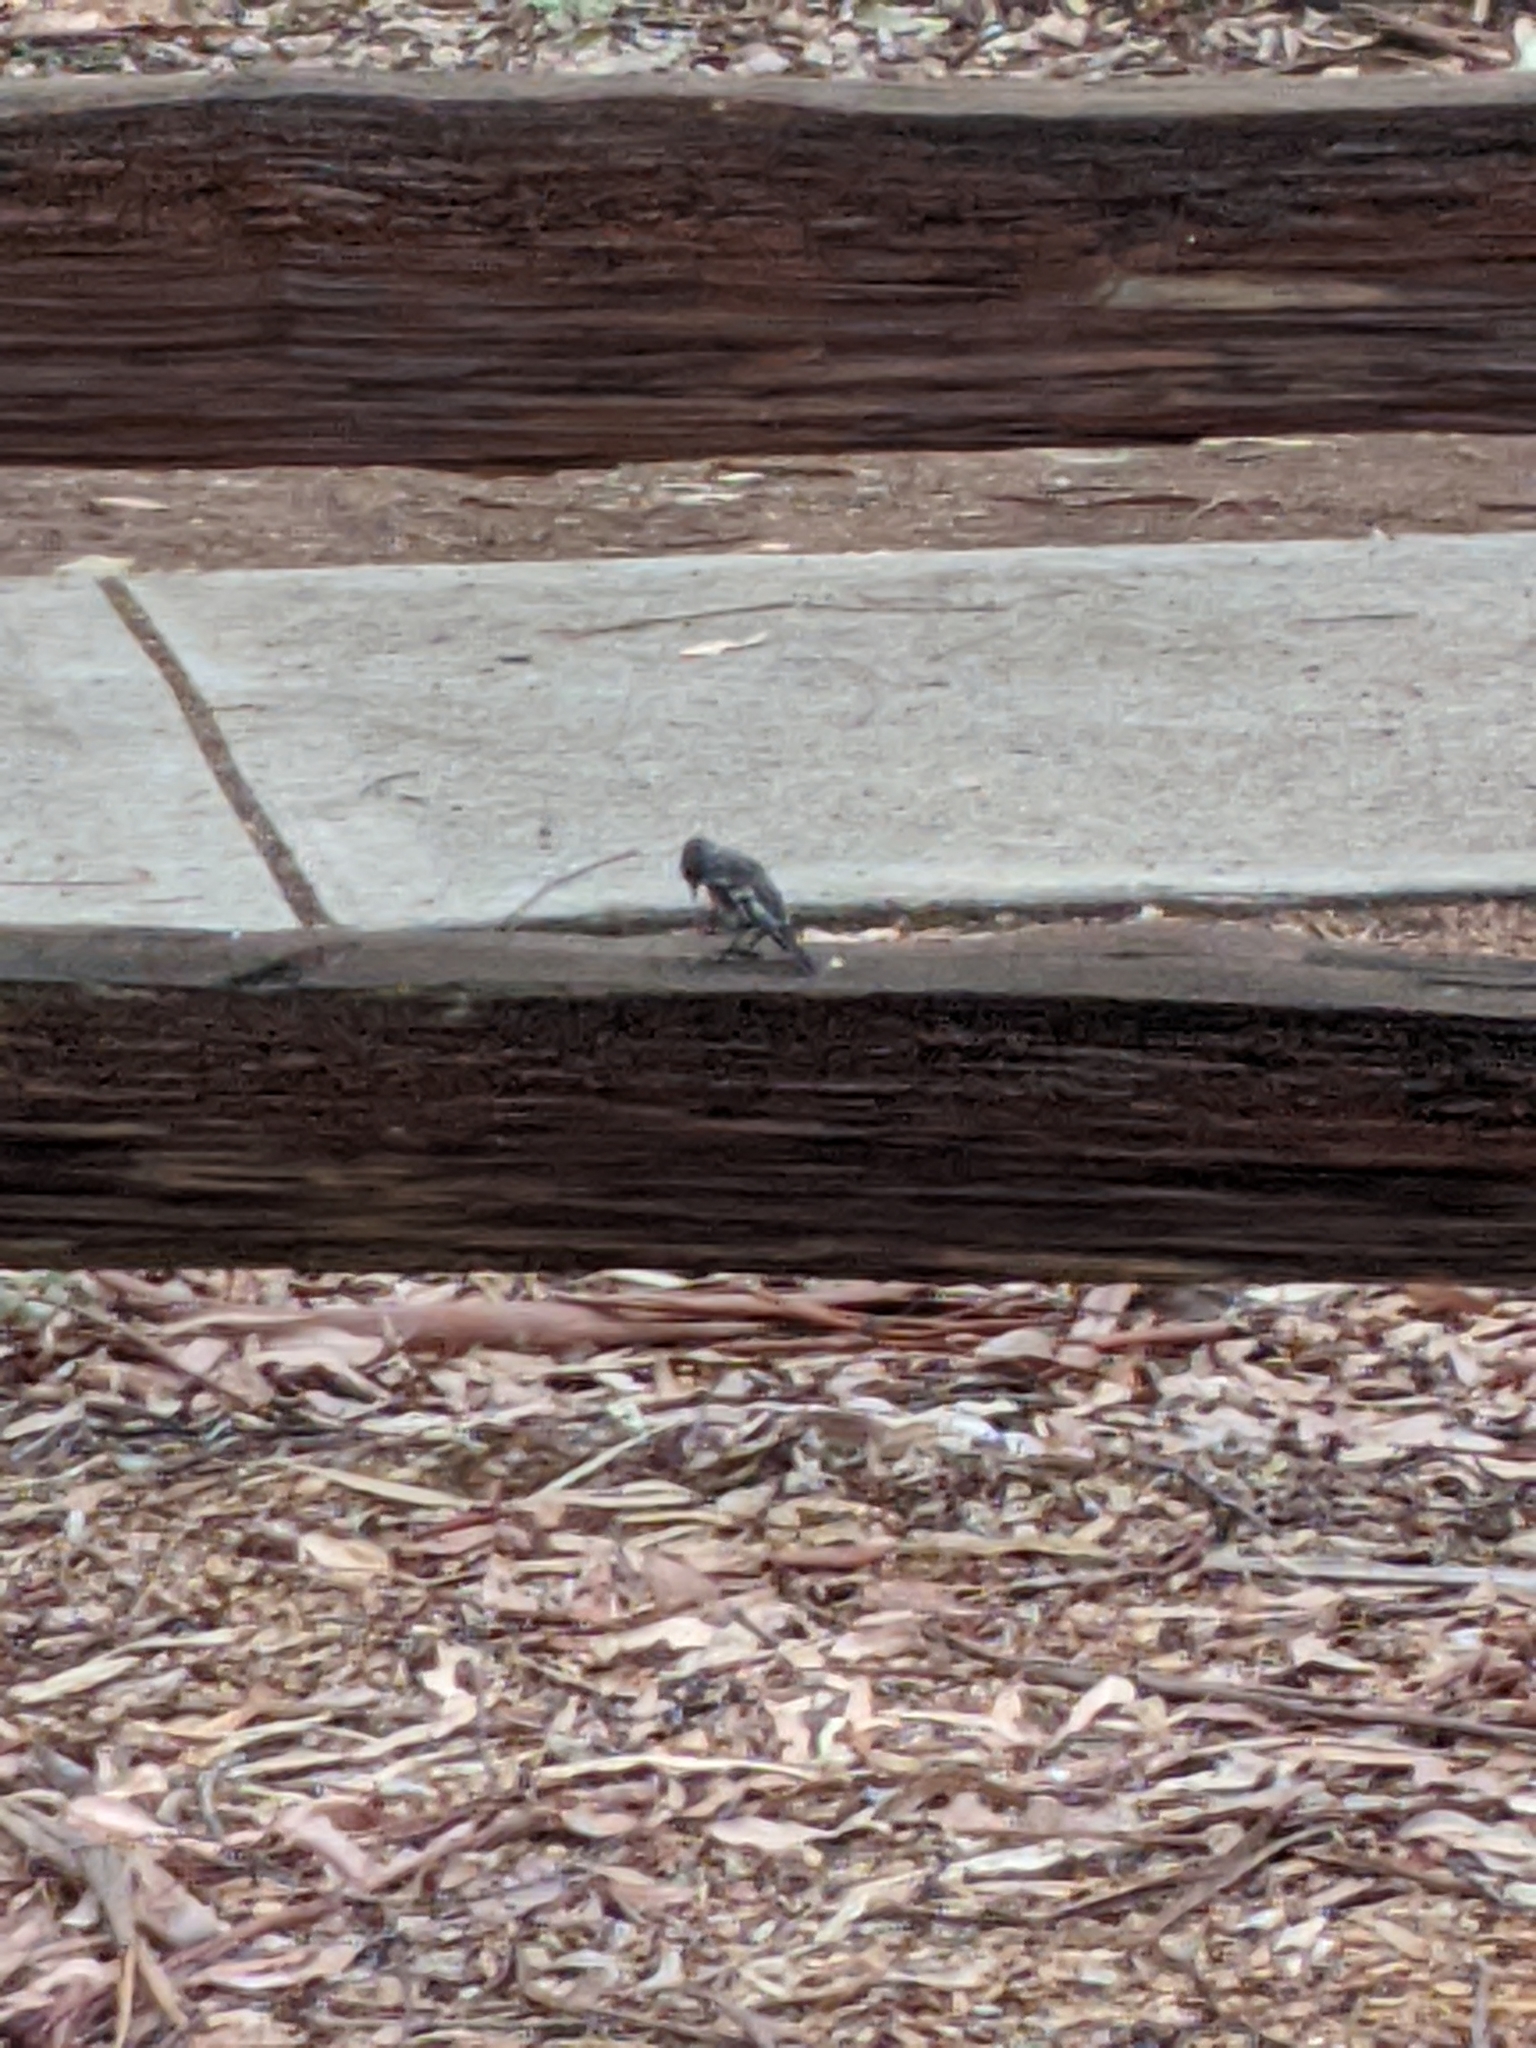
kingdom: Animalia
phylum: Chordata
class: Aves
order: Passeriformes
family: Petroicidae
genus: Petroica
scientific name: Petroica boodang
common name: Scarlet robin
